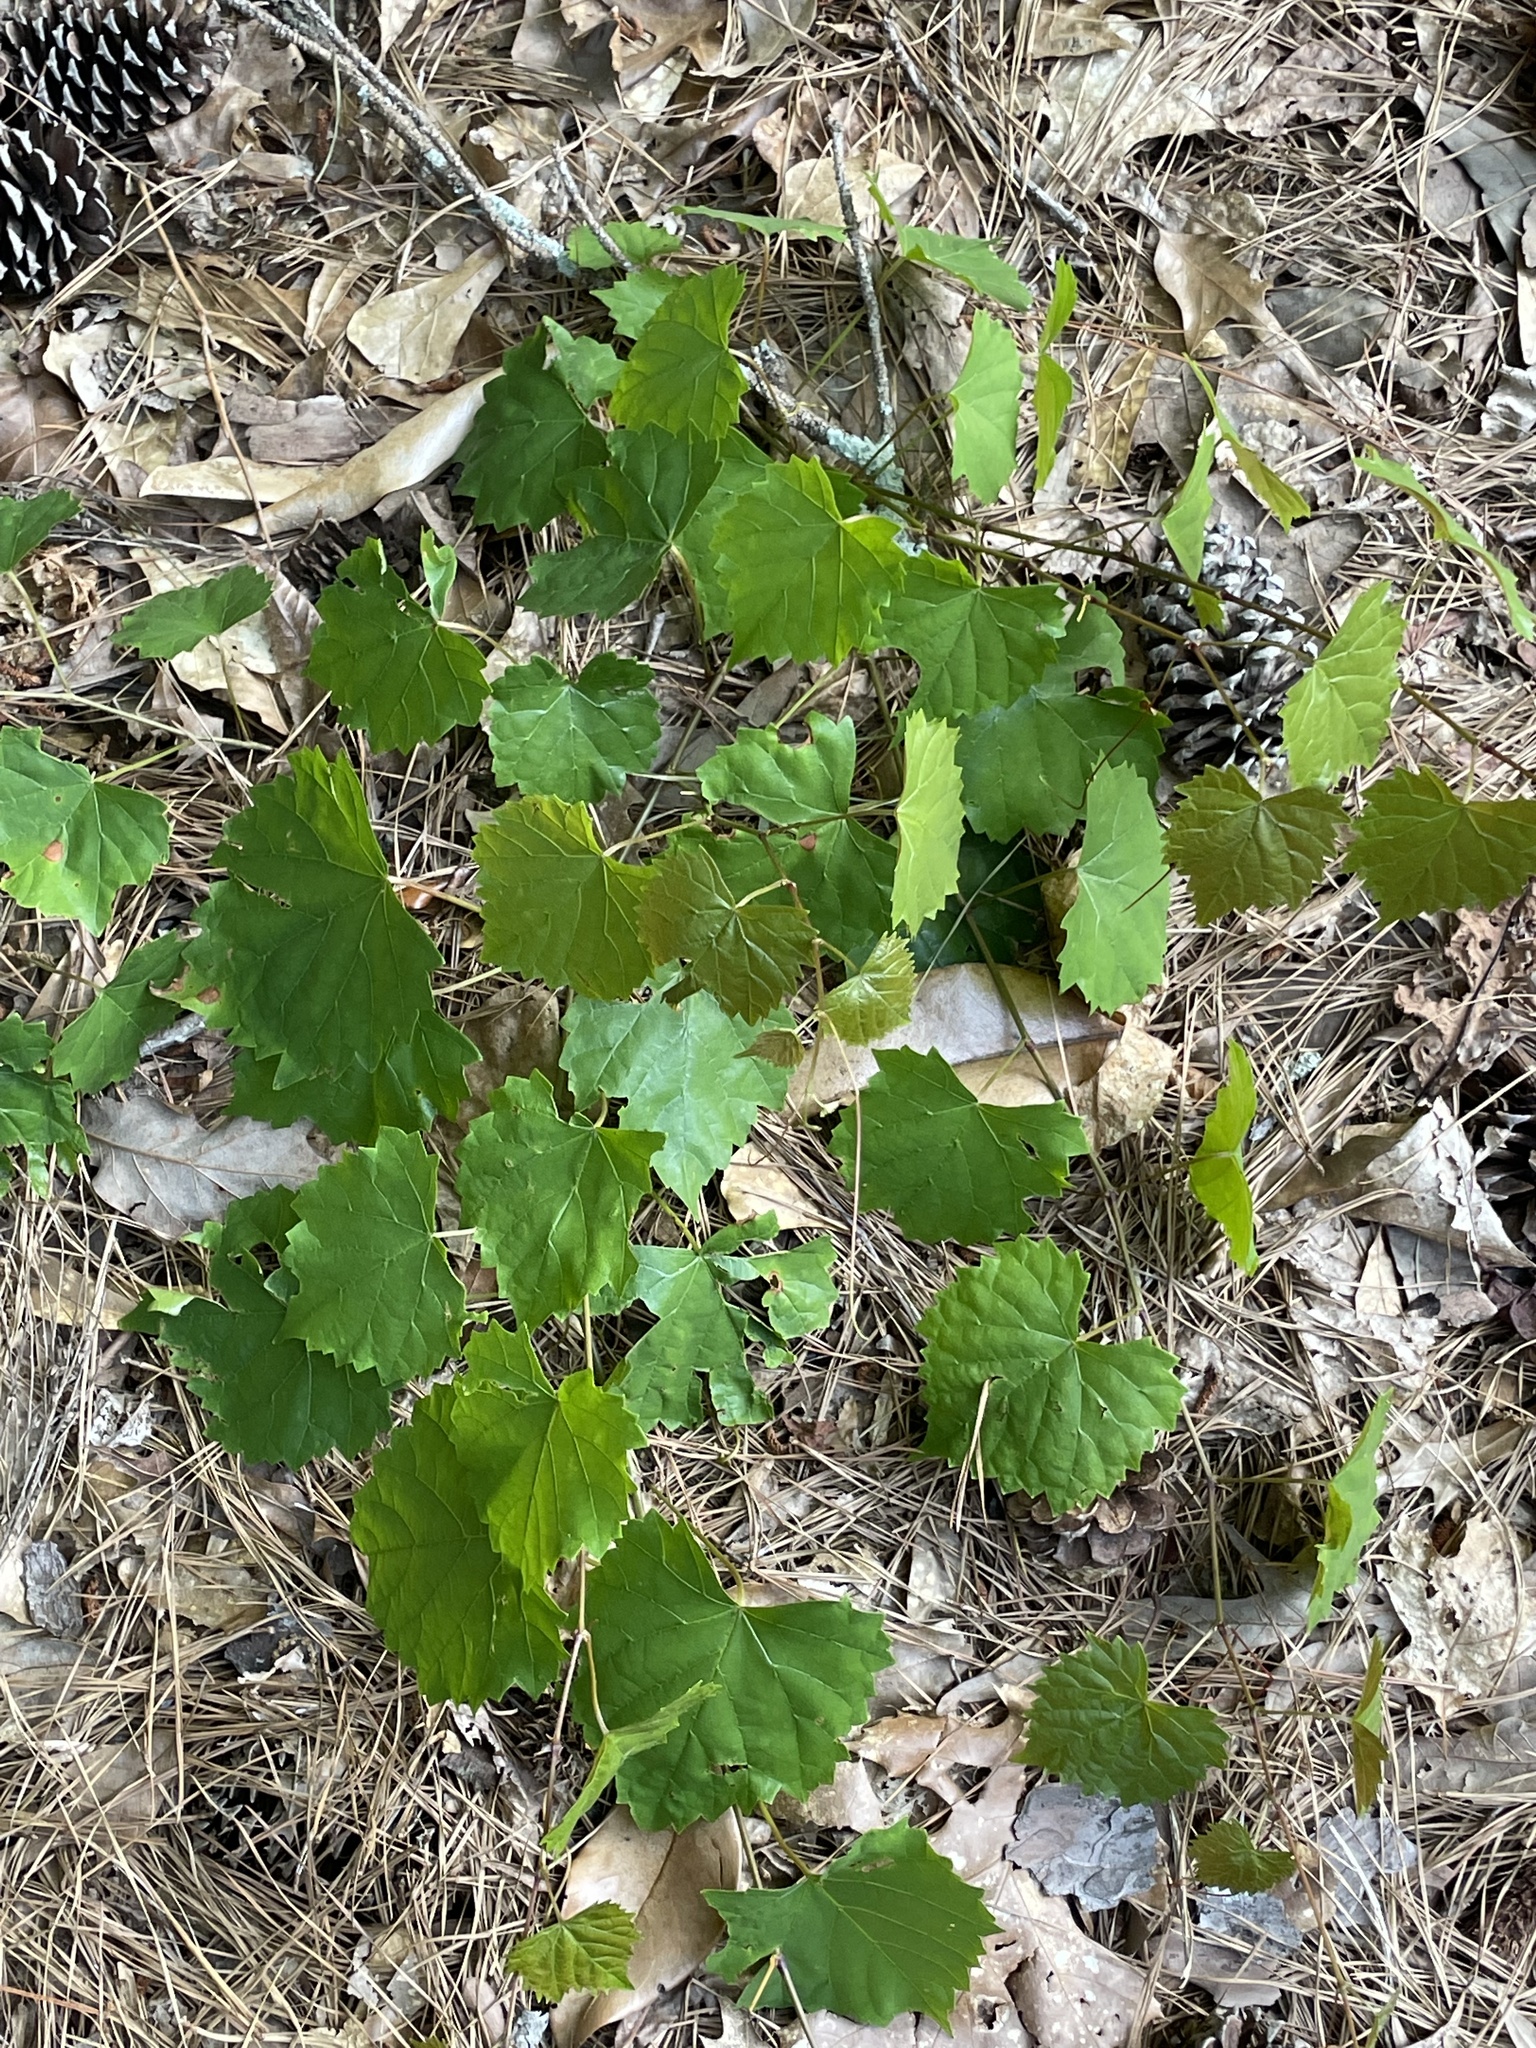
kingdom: Plantae
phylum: Tracheophyta
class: Magnoliopsida
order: Vitales
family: Vitaceae
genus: Vitis
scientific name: Vitis rotundifolia
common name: Muscadine grape
